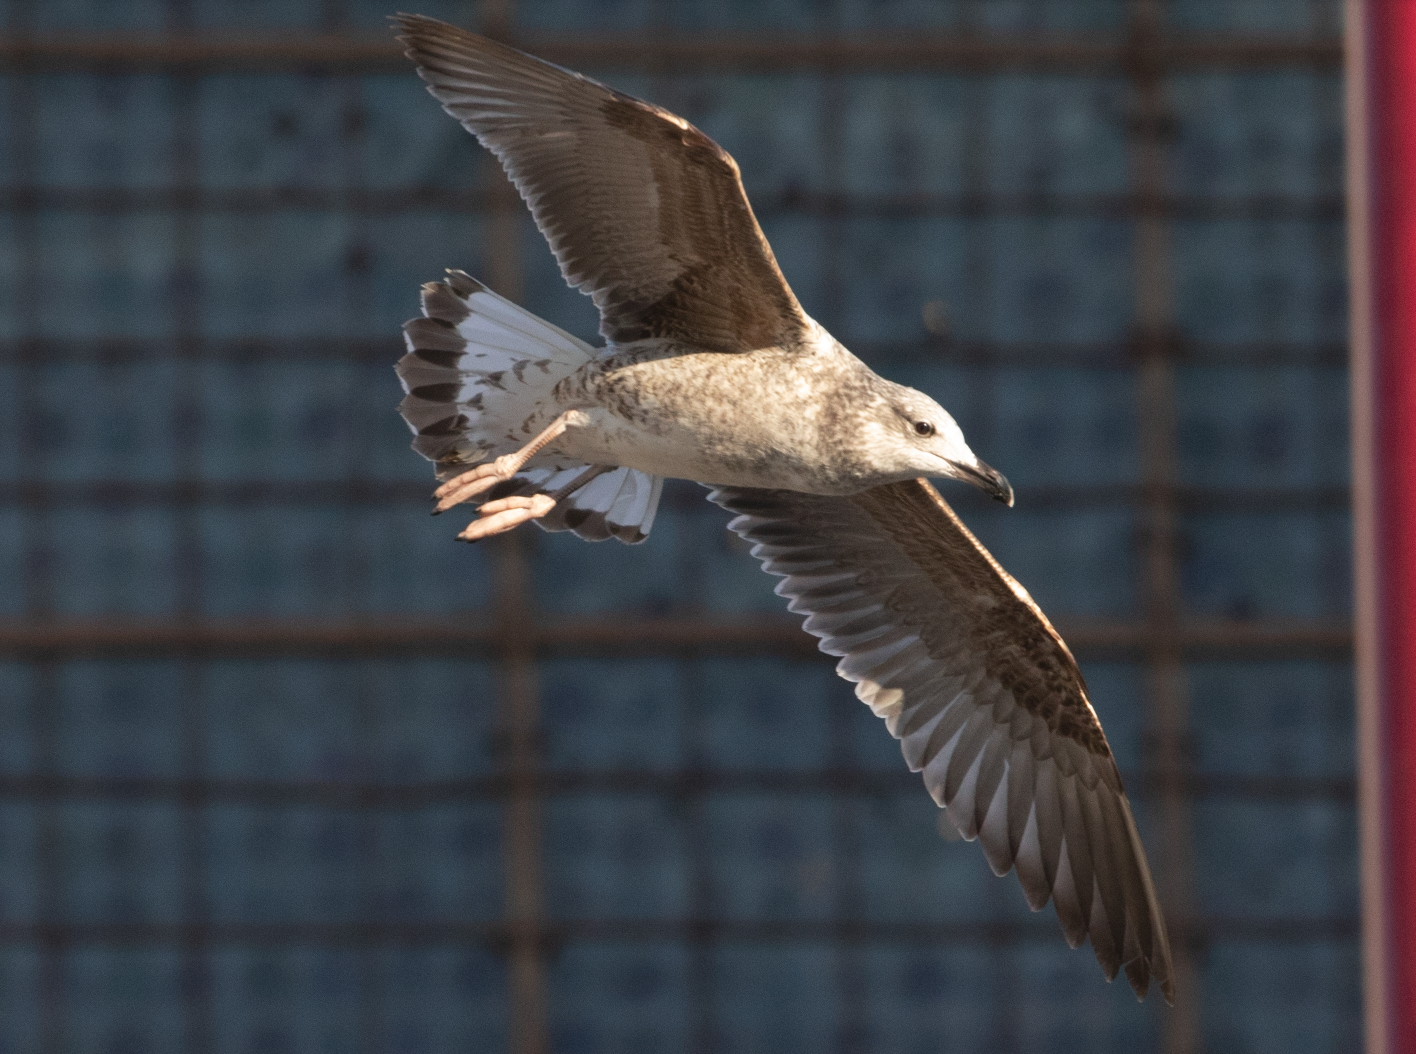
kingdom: Animalia
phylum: Chordata
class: Aves
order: Charadriiformes
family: Laridae
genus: Larus
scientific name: Larus michahellis
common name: Yellow-legged gull
